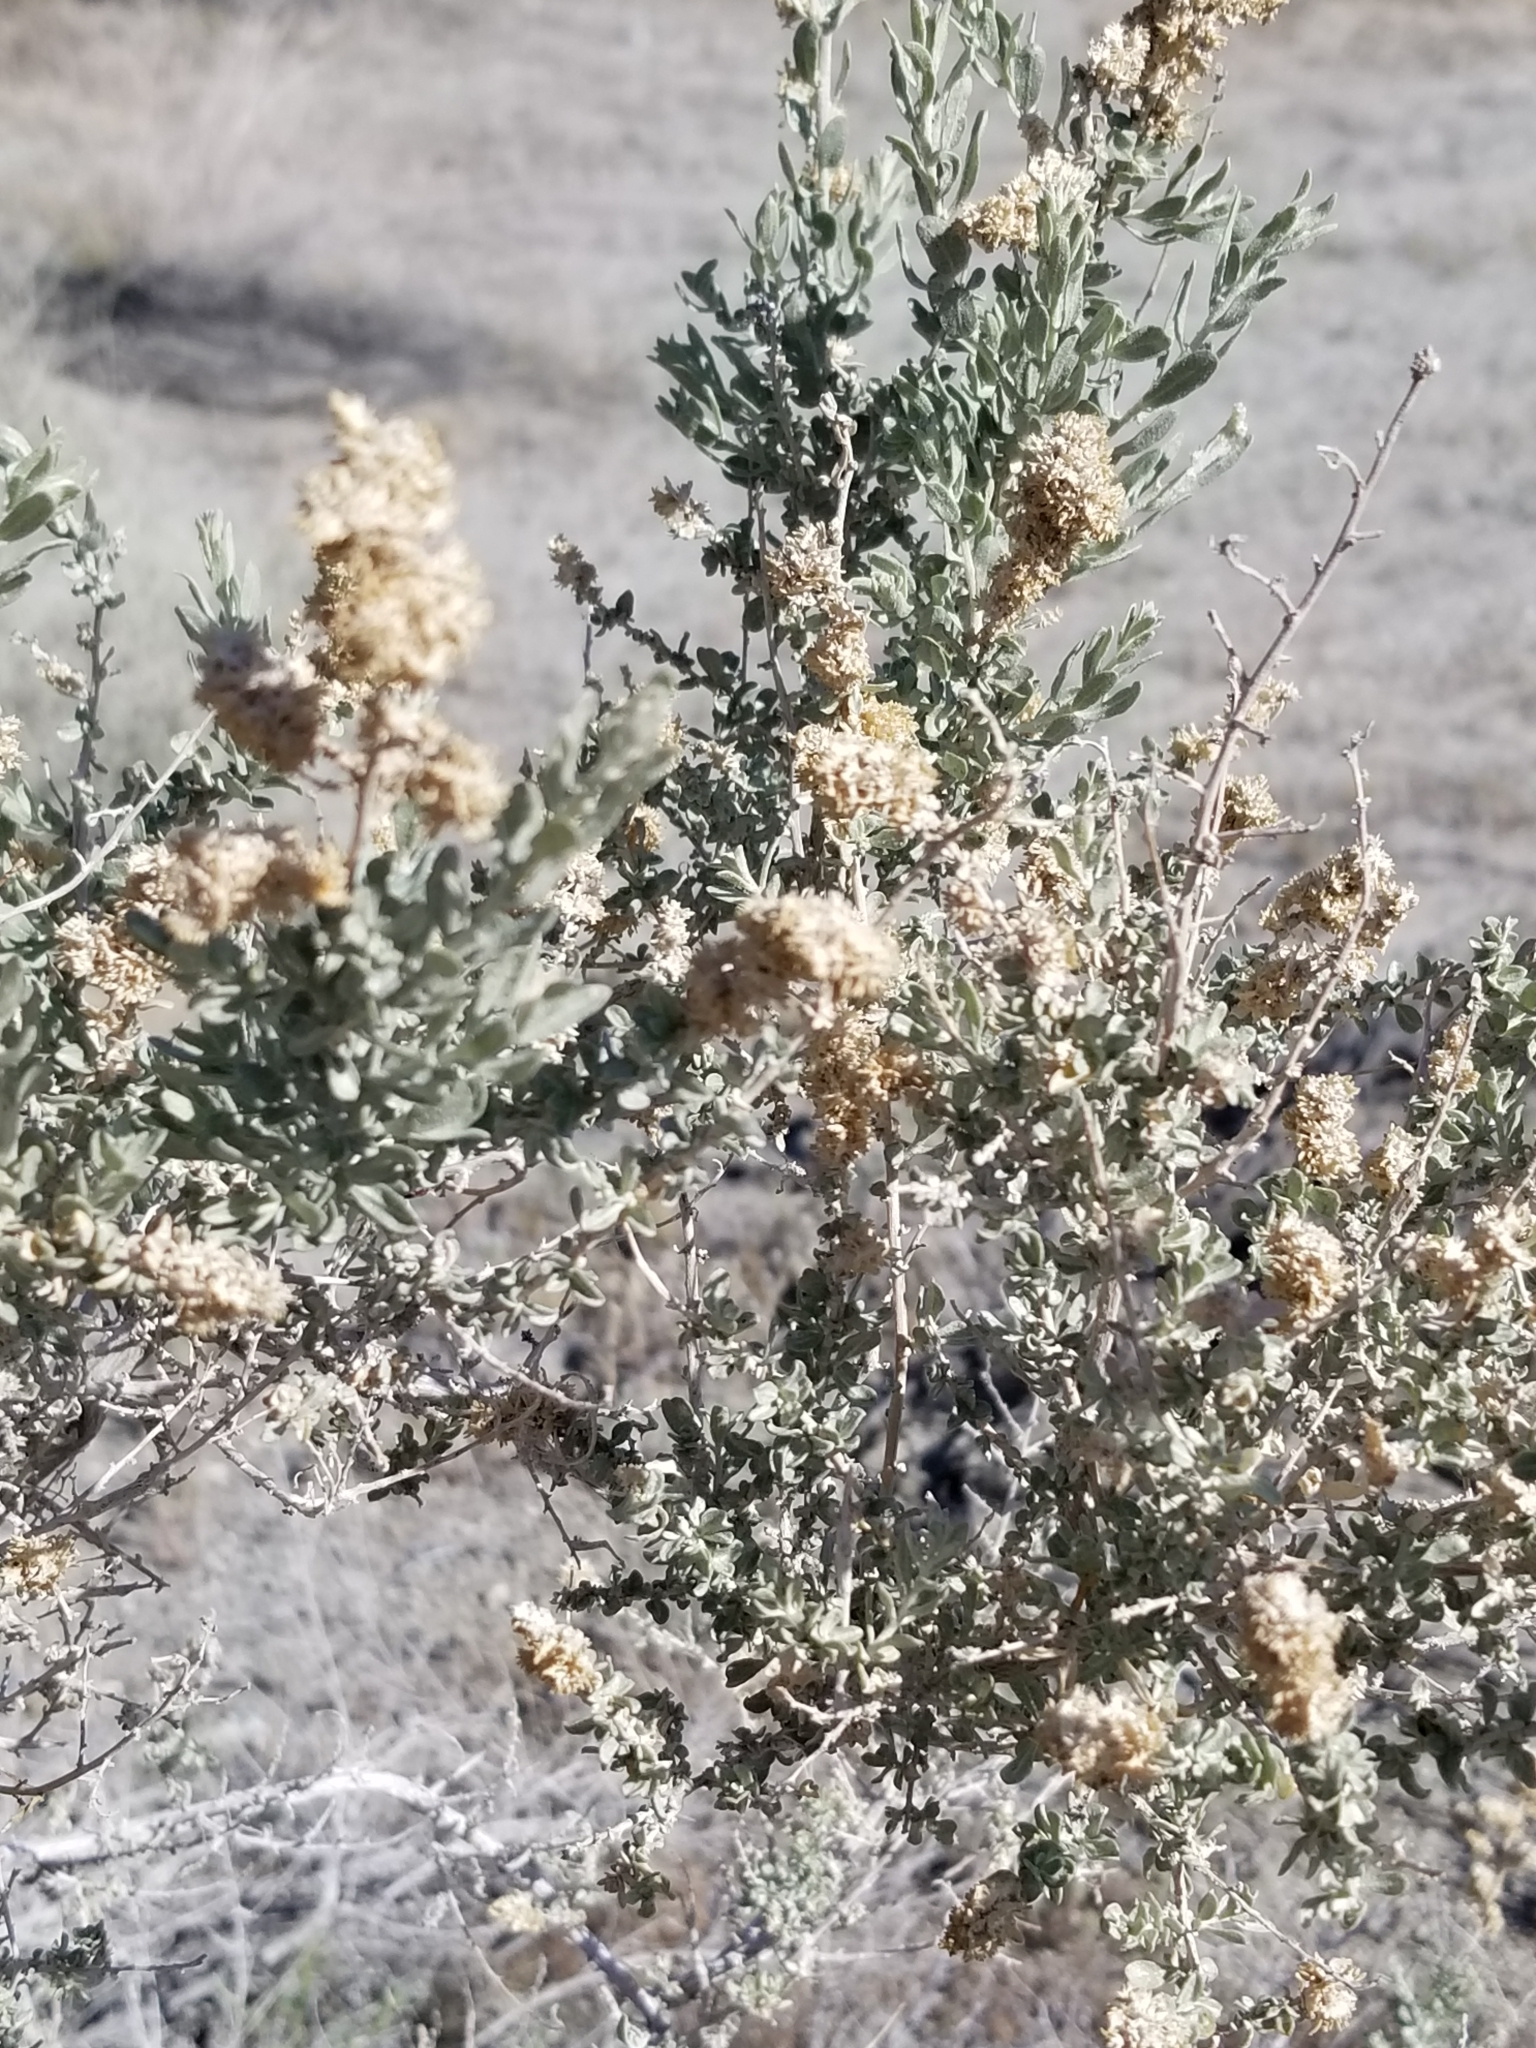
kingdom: Plantae
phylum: Tracheophyta
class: Magnoliopsida
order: Caryophyllales
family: Amaranthaceae
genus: Atriplex
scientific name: Atriplex polycarpa
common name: Desert saltbush
